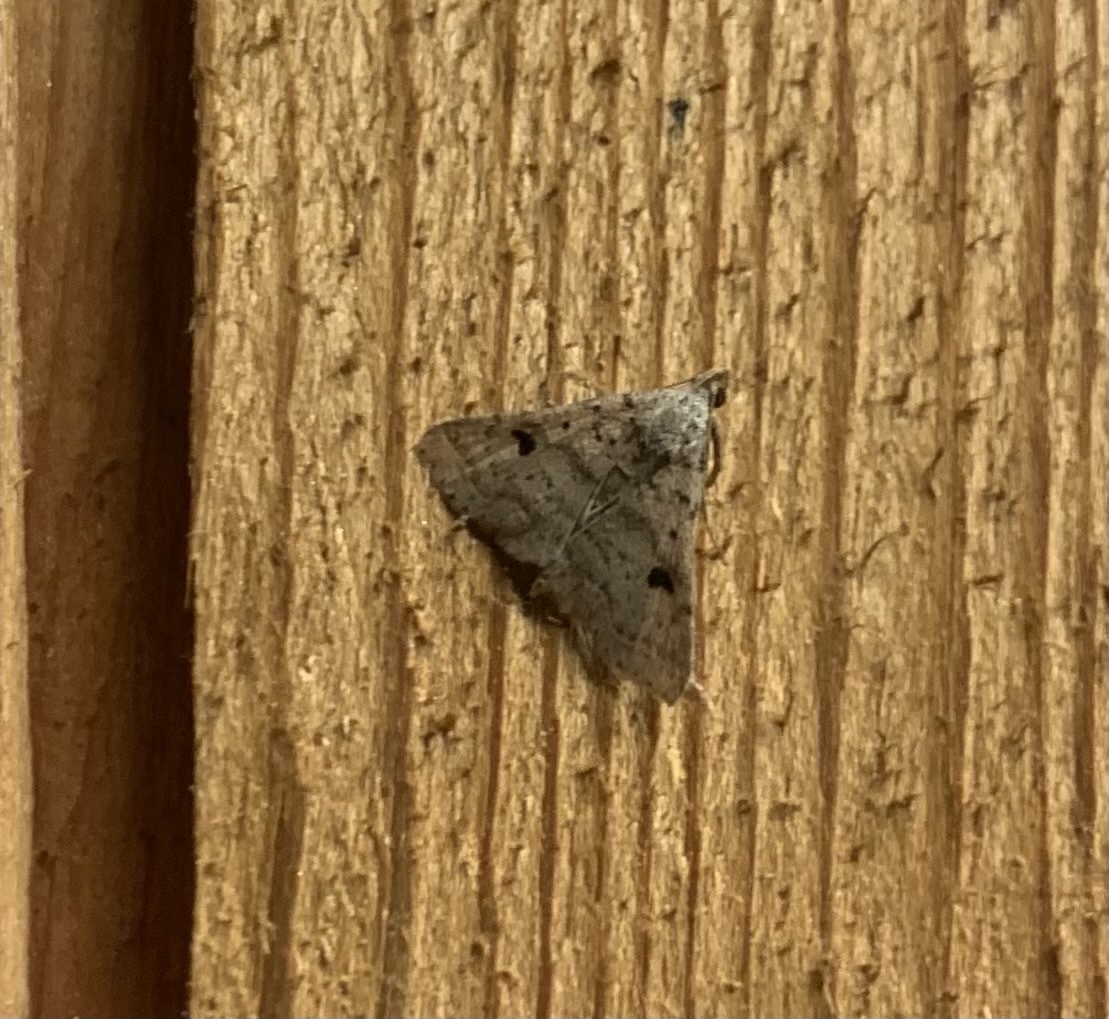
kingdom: Animalia
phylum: Arthropoda
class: Insecta
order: Lepidoptera
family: Erebidae
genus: Bleptina
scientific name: Bleptina caradrinalis
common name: Bent-winged owlet
